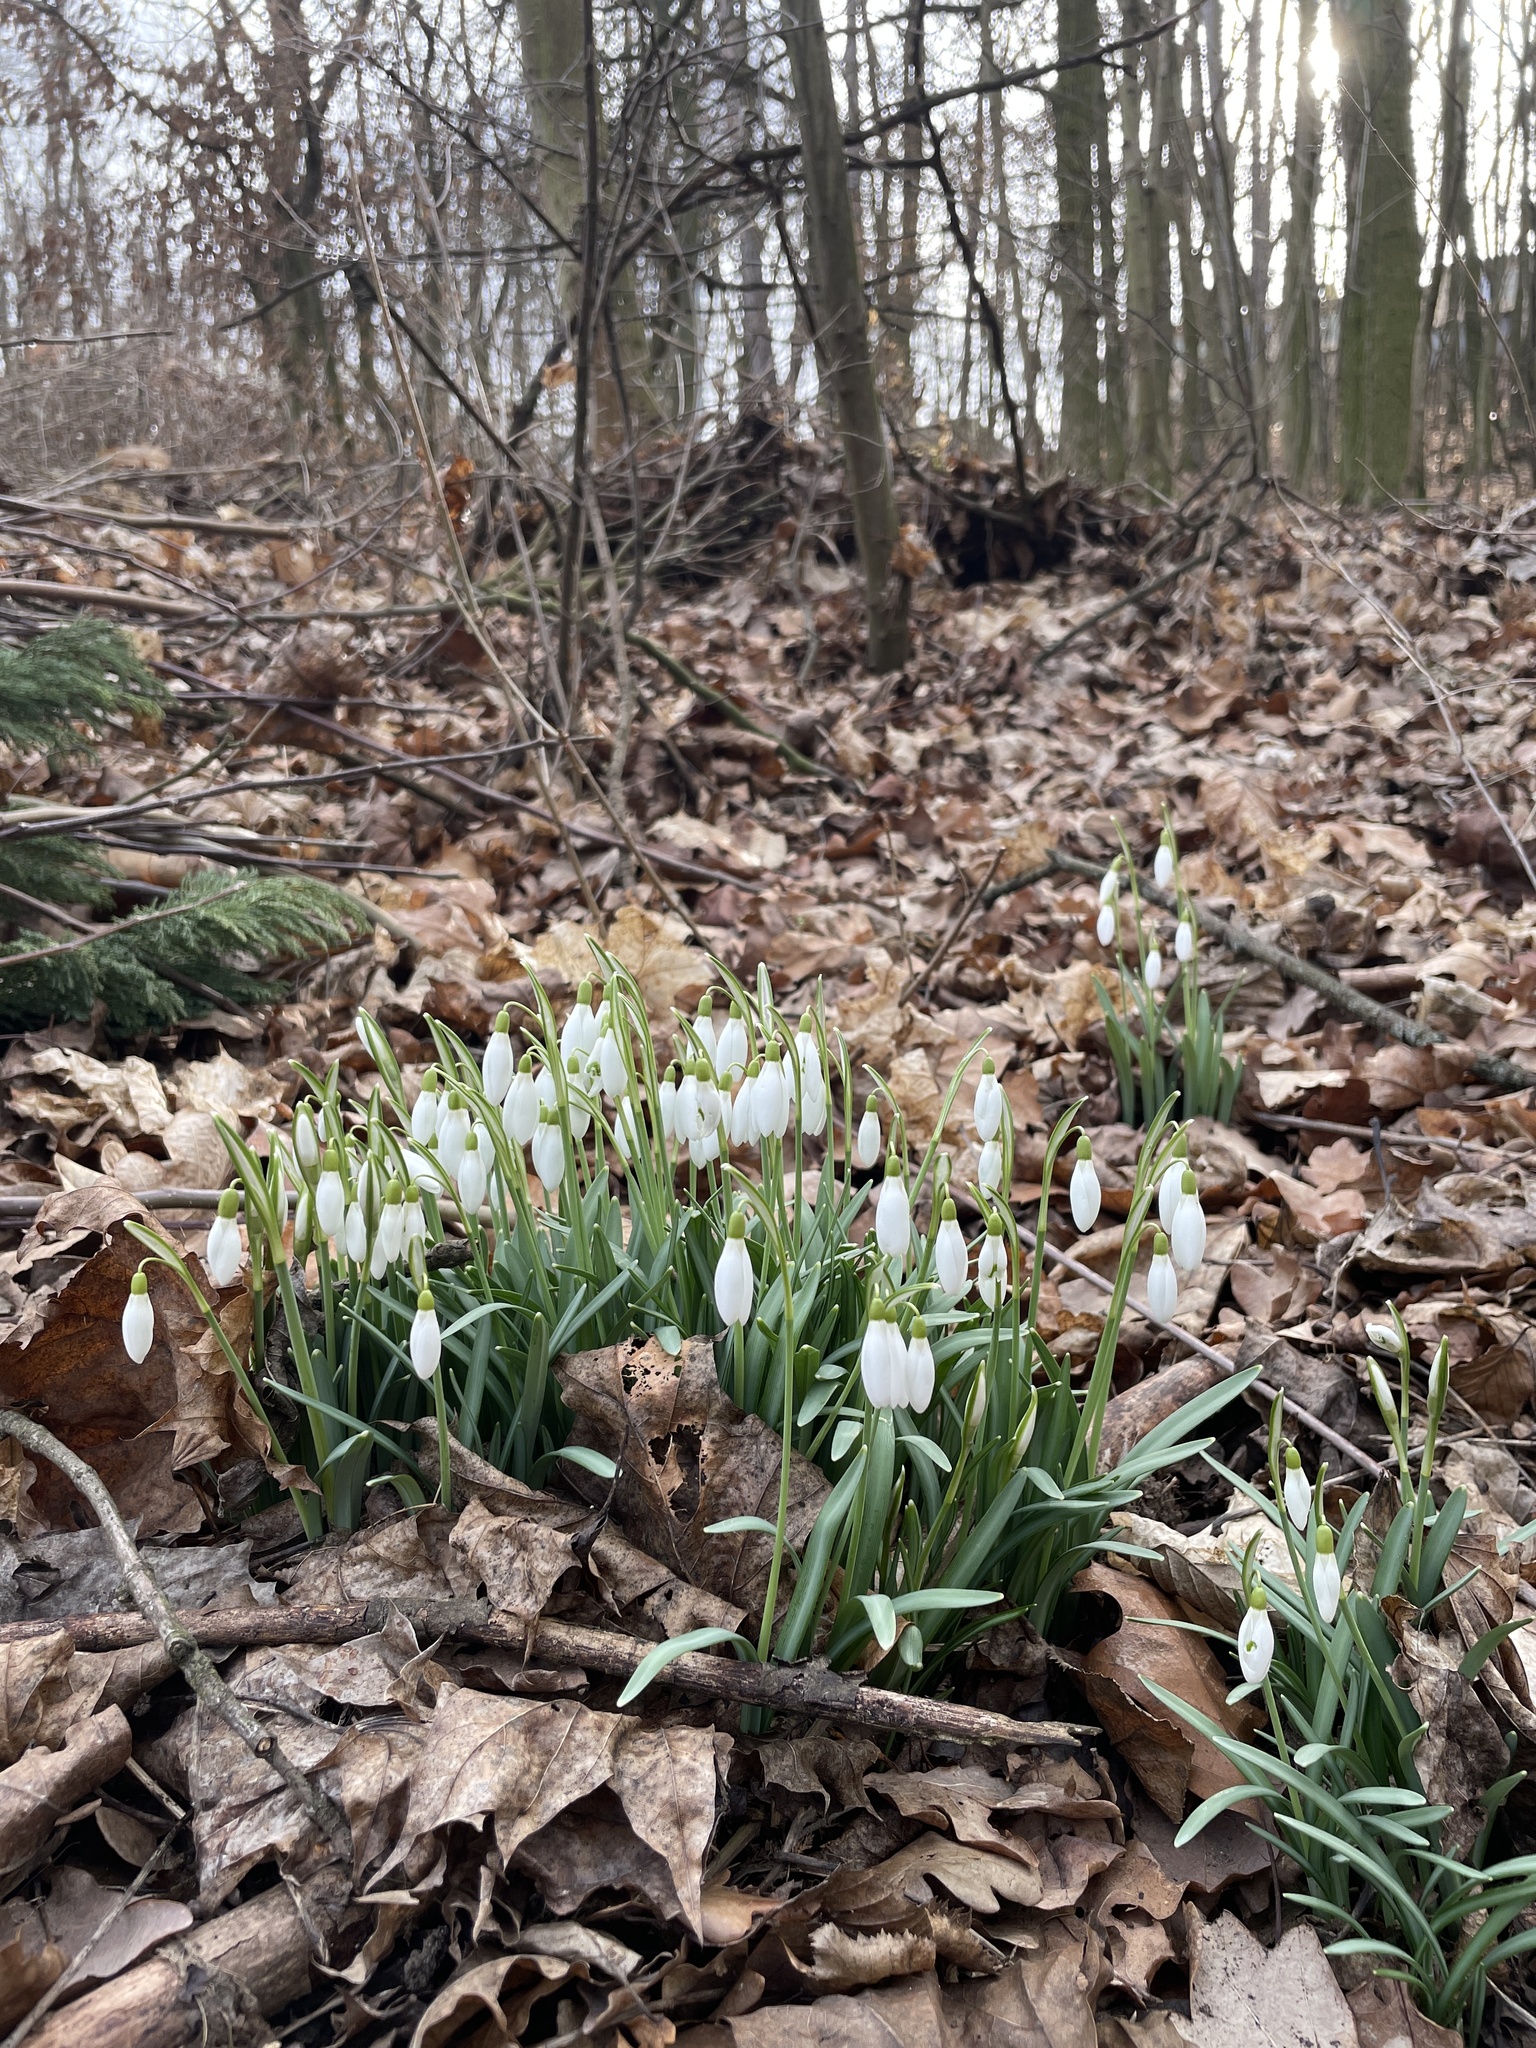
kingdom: Plantae
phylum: Tracheophyta
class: Liliopsida
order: Asparagales
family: Amaryllidaceae
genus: Galanthus
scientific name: Galanthus nivalis
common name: Snowdrop
